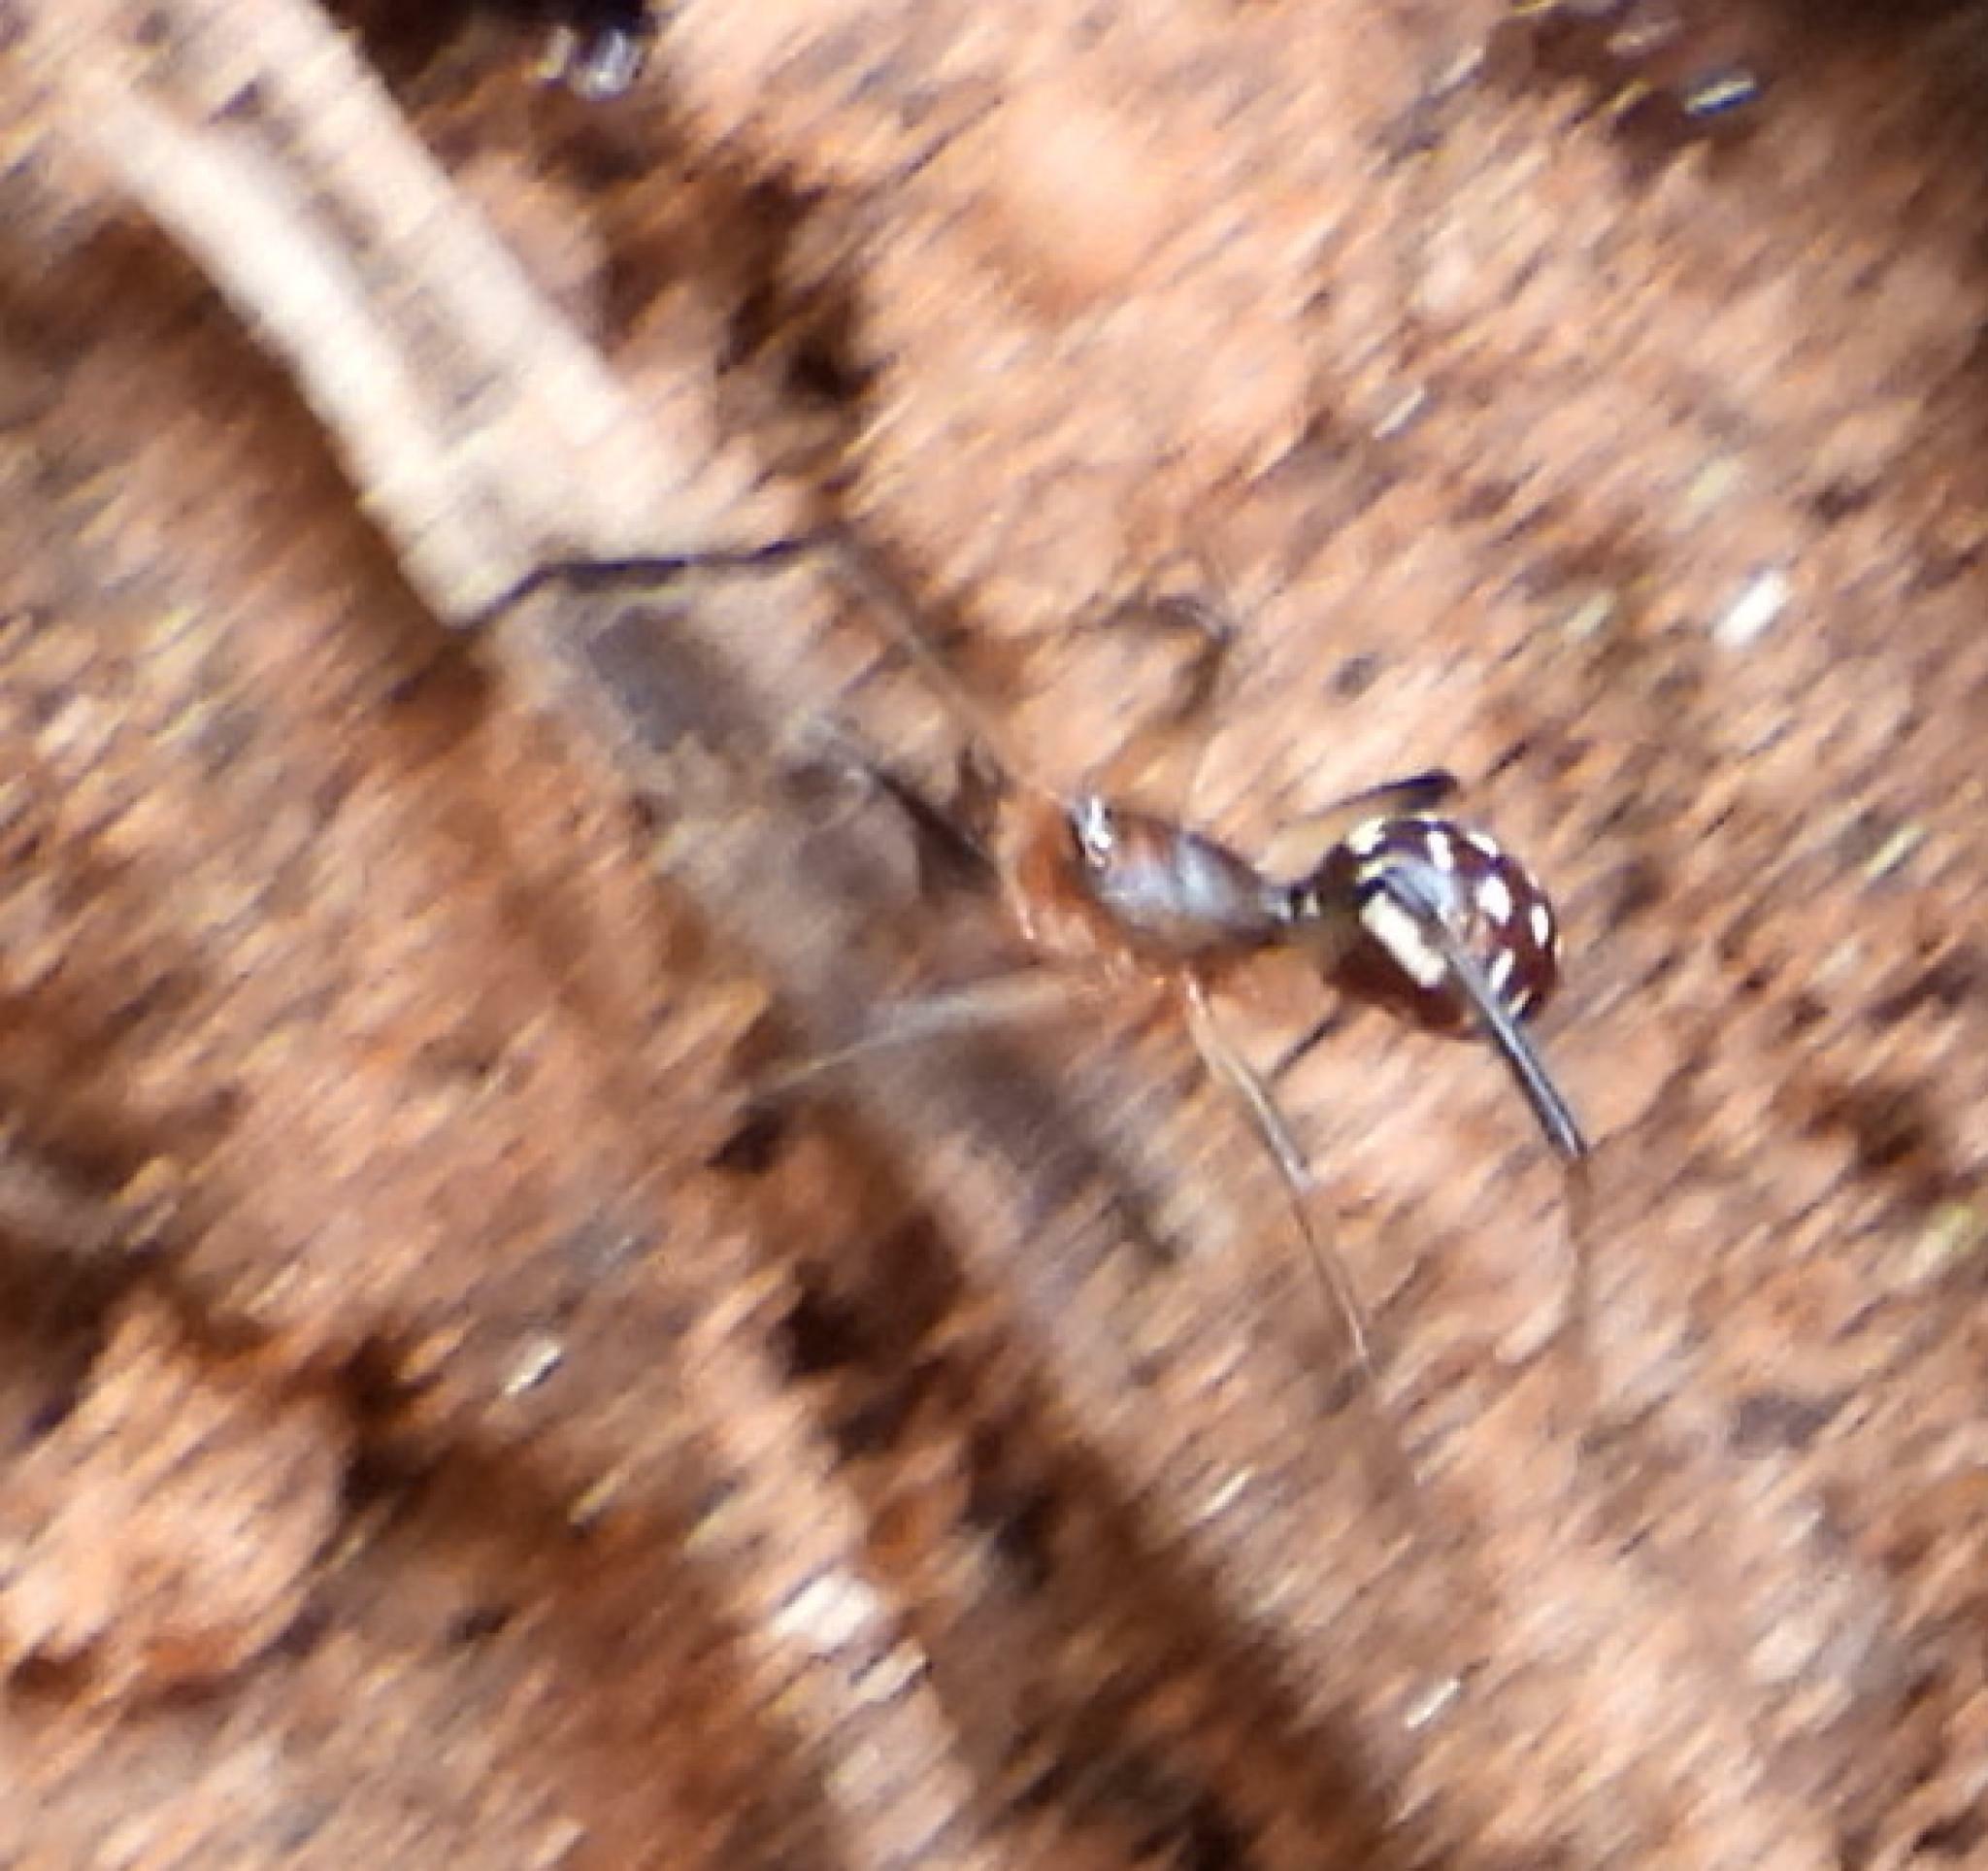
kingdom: Animalia
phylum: Arthropoda
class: Arachnida
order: Araneae
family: Theridiidae
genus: Steatoda
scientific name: Steatoda capensis
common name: Cobweb weaver
